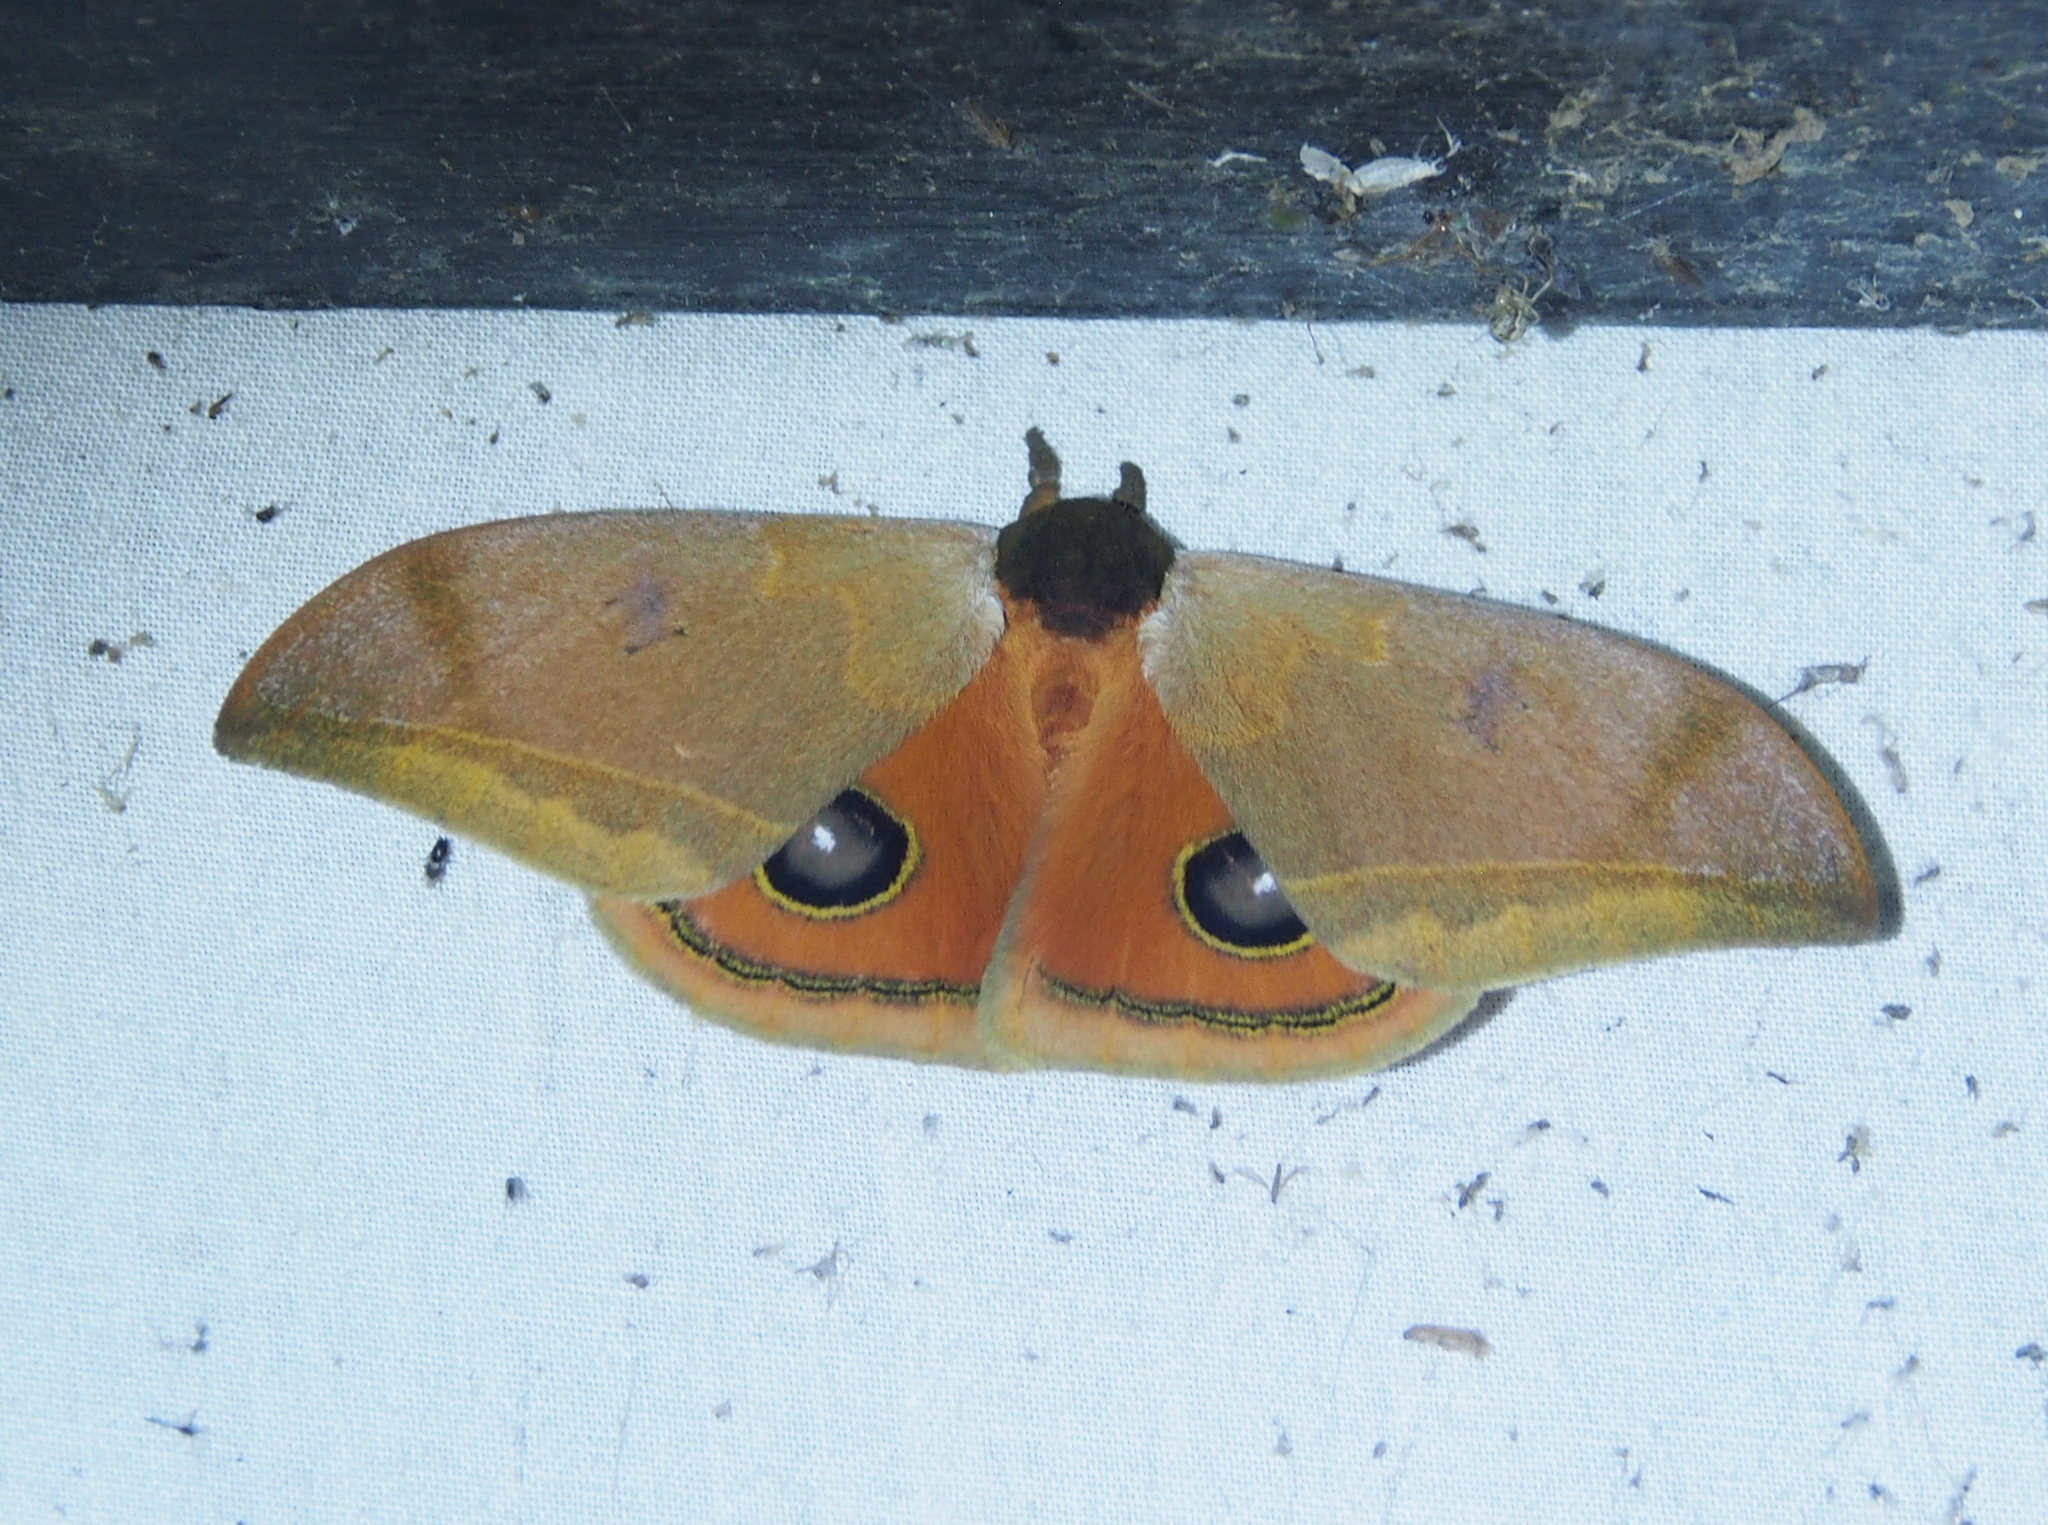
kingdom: Animalia
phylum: Arthropoda
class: Insecta
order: Lepidoptera
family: Saturniidae
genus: Automeris
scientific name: Automeris fieldi
